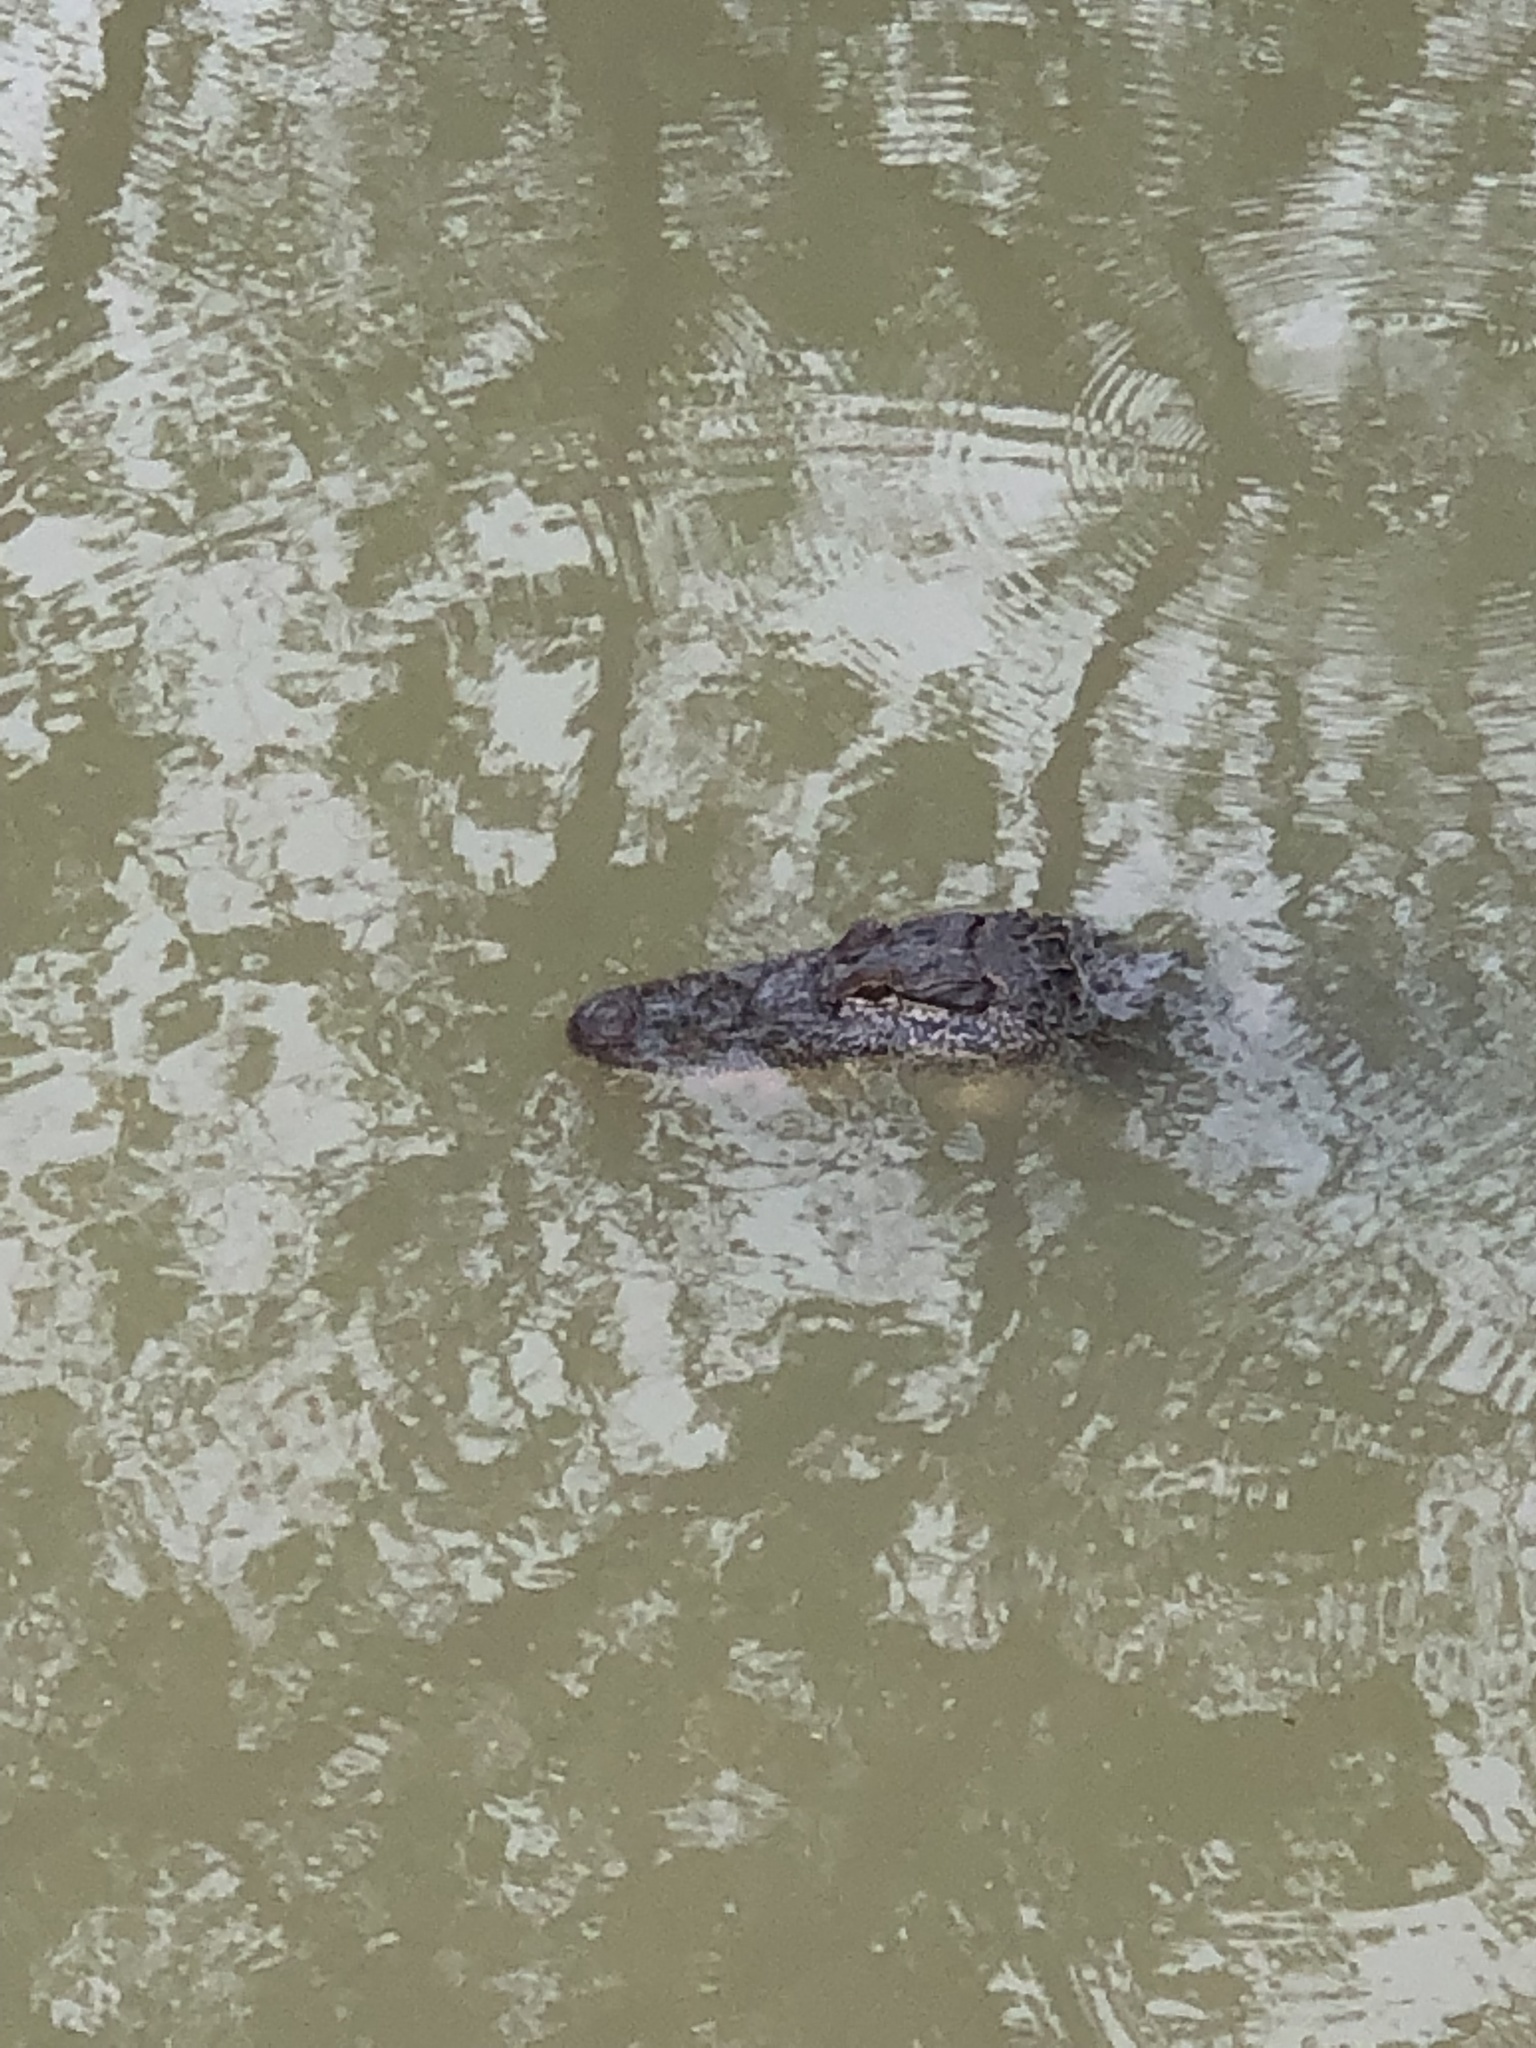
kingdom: Animalia
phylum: Chordata
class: Crocodylia
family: Alligatoridae
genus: Alligator
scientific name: Alligator mississippiensis
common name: American alligator
